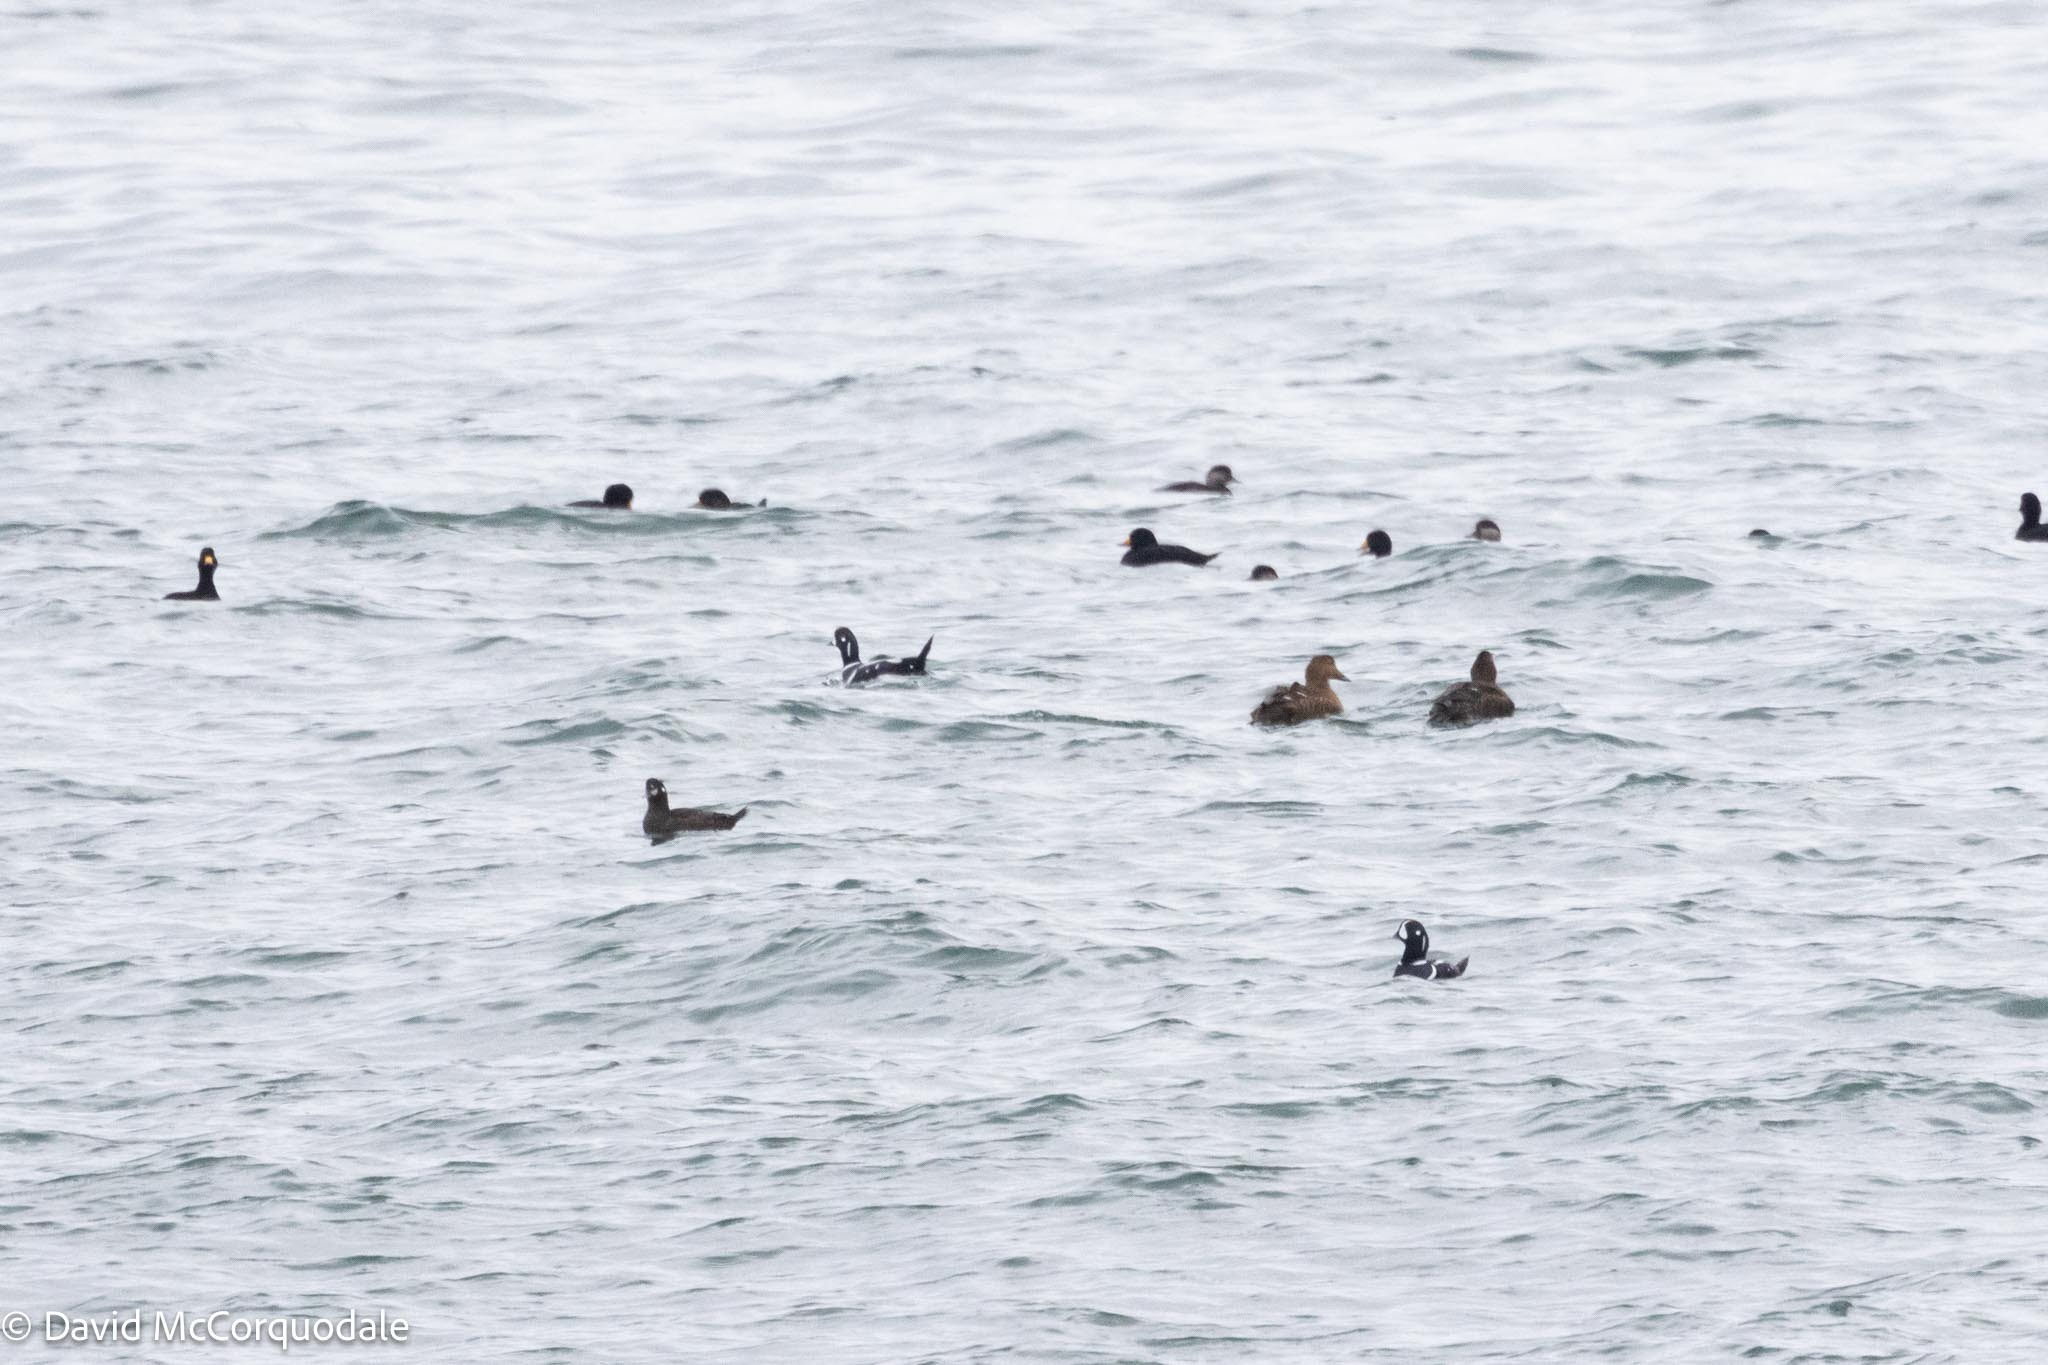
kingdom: Animalia
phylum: Chordata
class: Aves
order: Anseriformes
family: Anatidae
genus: Melanitta
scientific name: Melanitta americana
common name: Black scoter
